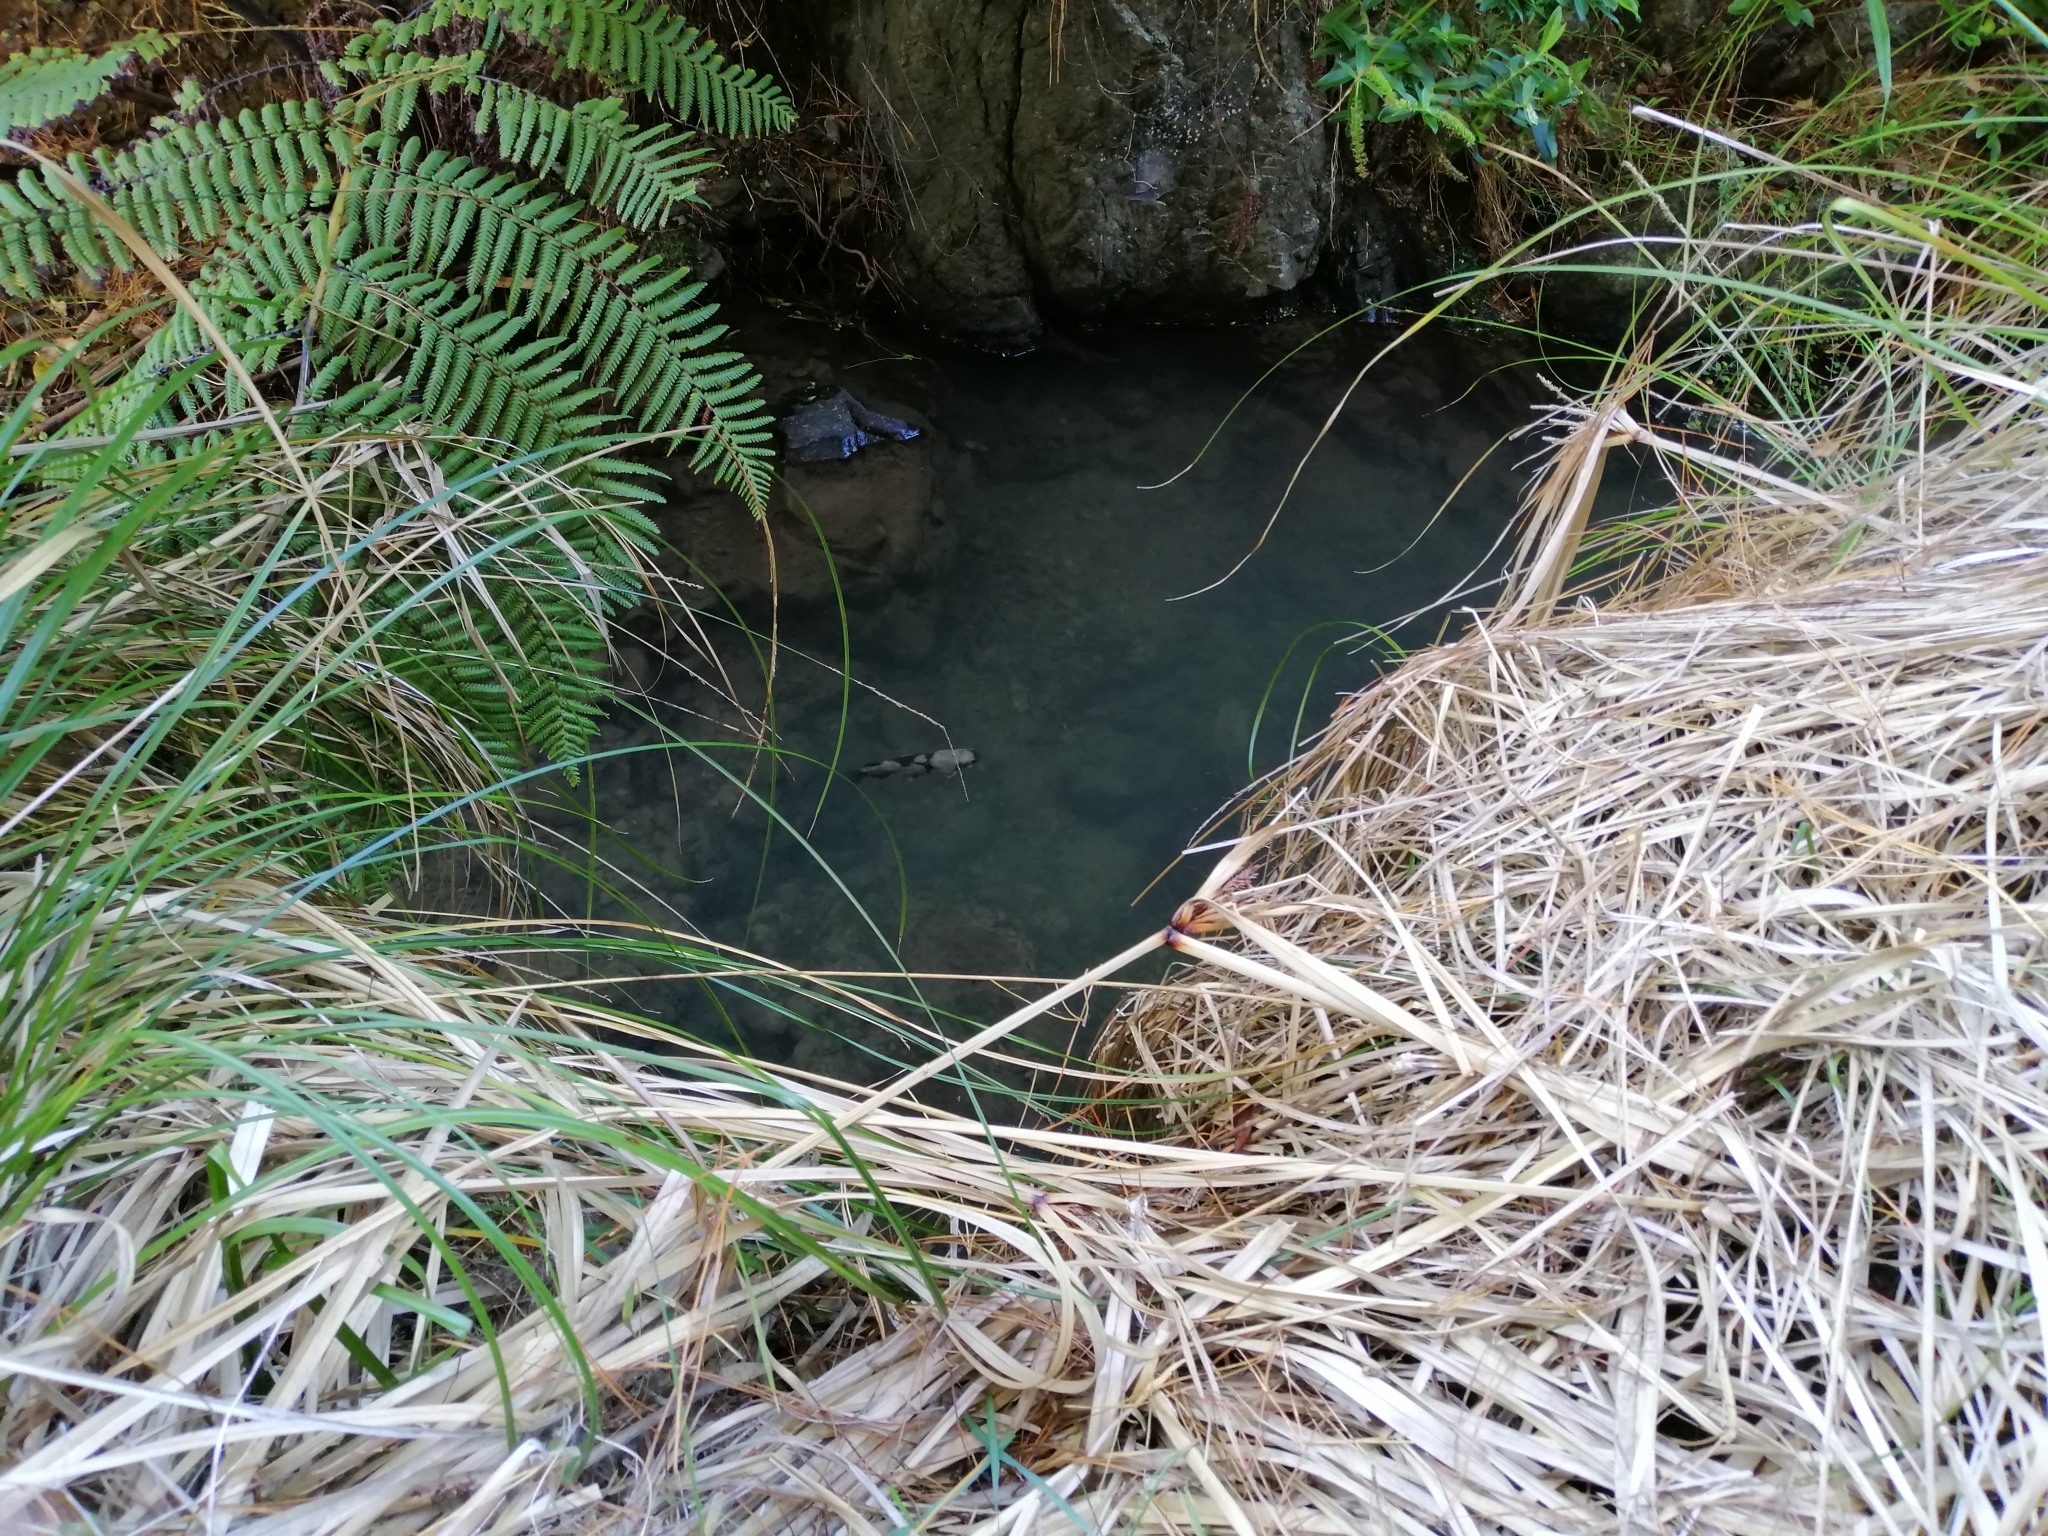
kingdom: Animalia
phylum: Chordata
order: Osmeriformes
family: Galaxiidae
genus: Galaxias
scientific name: Galaxias fasciatus
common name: Banded kokopu
